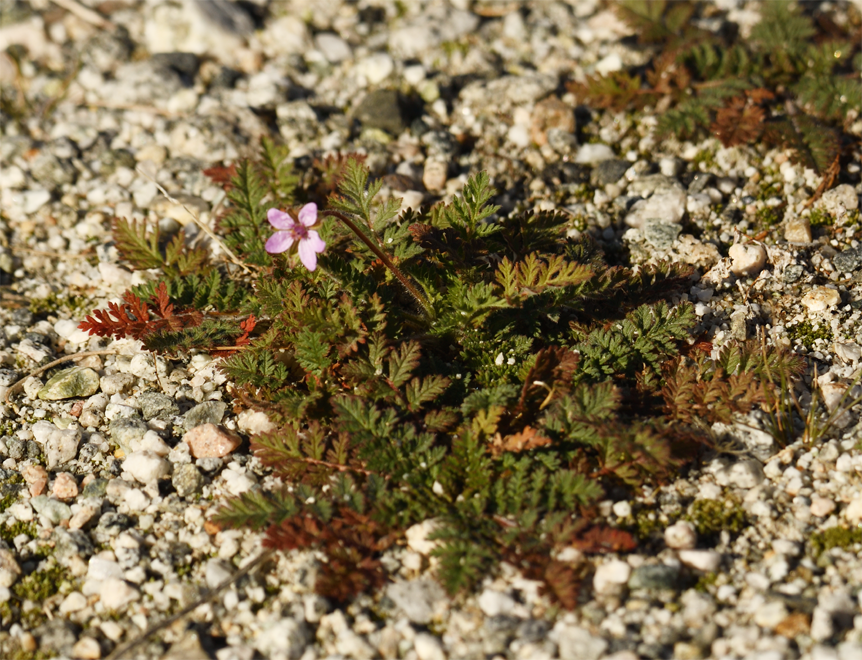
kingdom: Plantae
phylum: Tracheophyta
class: Magnoliopsida
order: Geraniales
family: Geraniaceae
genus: Erodium
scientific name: Erodium cicutarium
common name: Common stork's-bill
